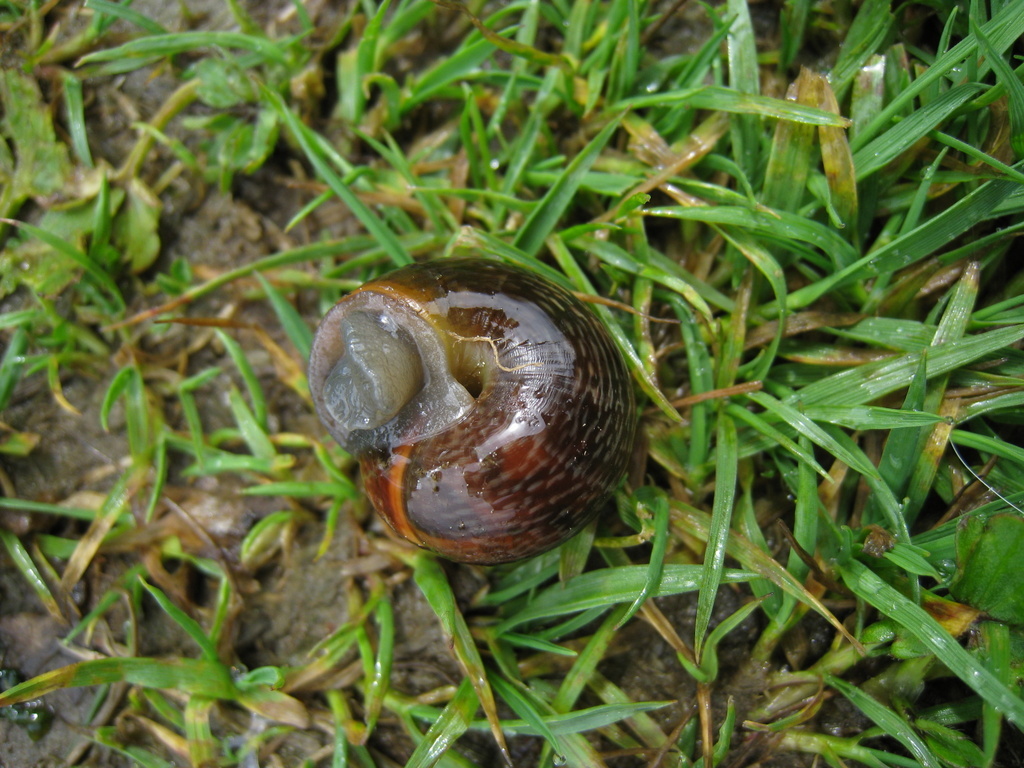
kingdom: Animalia
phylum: Mollusca
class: Gastropoda
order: Stylommatophora
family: Helicidae
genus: Arianta
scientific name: Arianta arbustorum
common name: Copse snail
